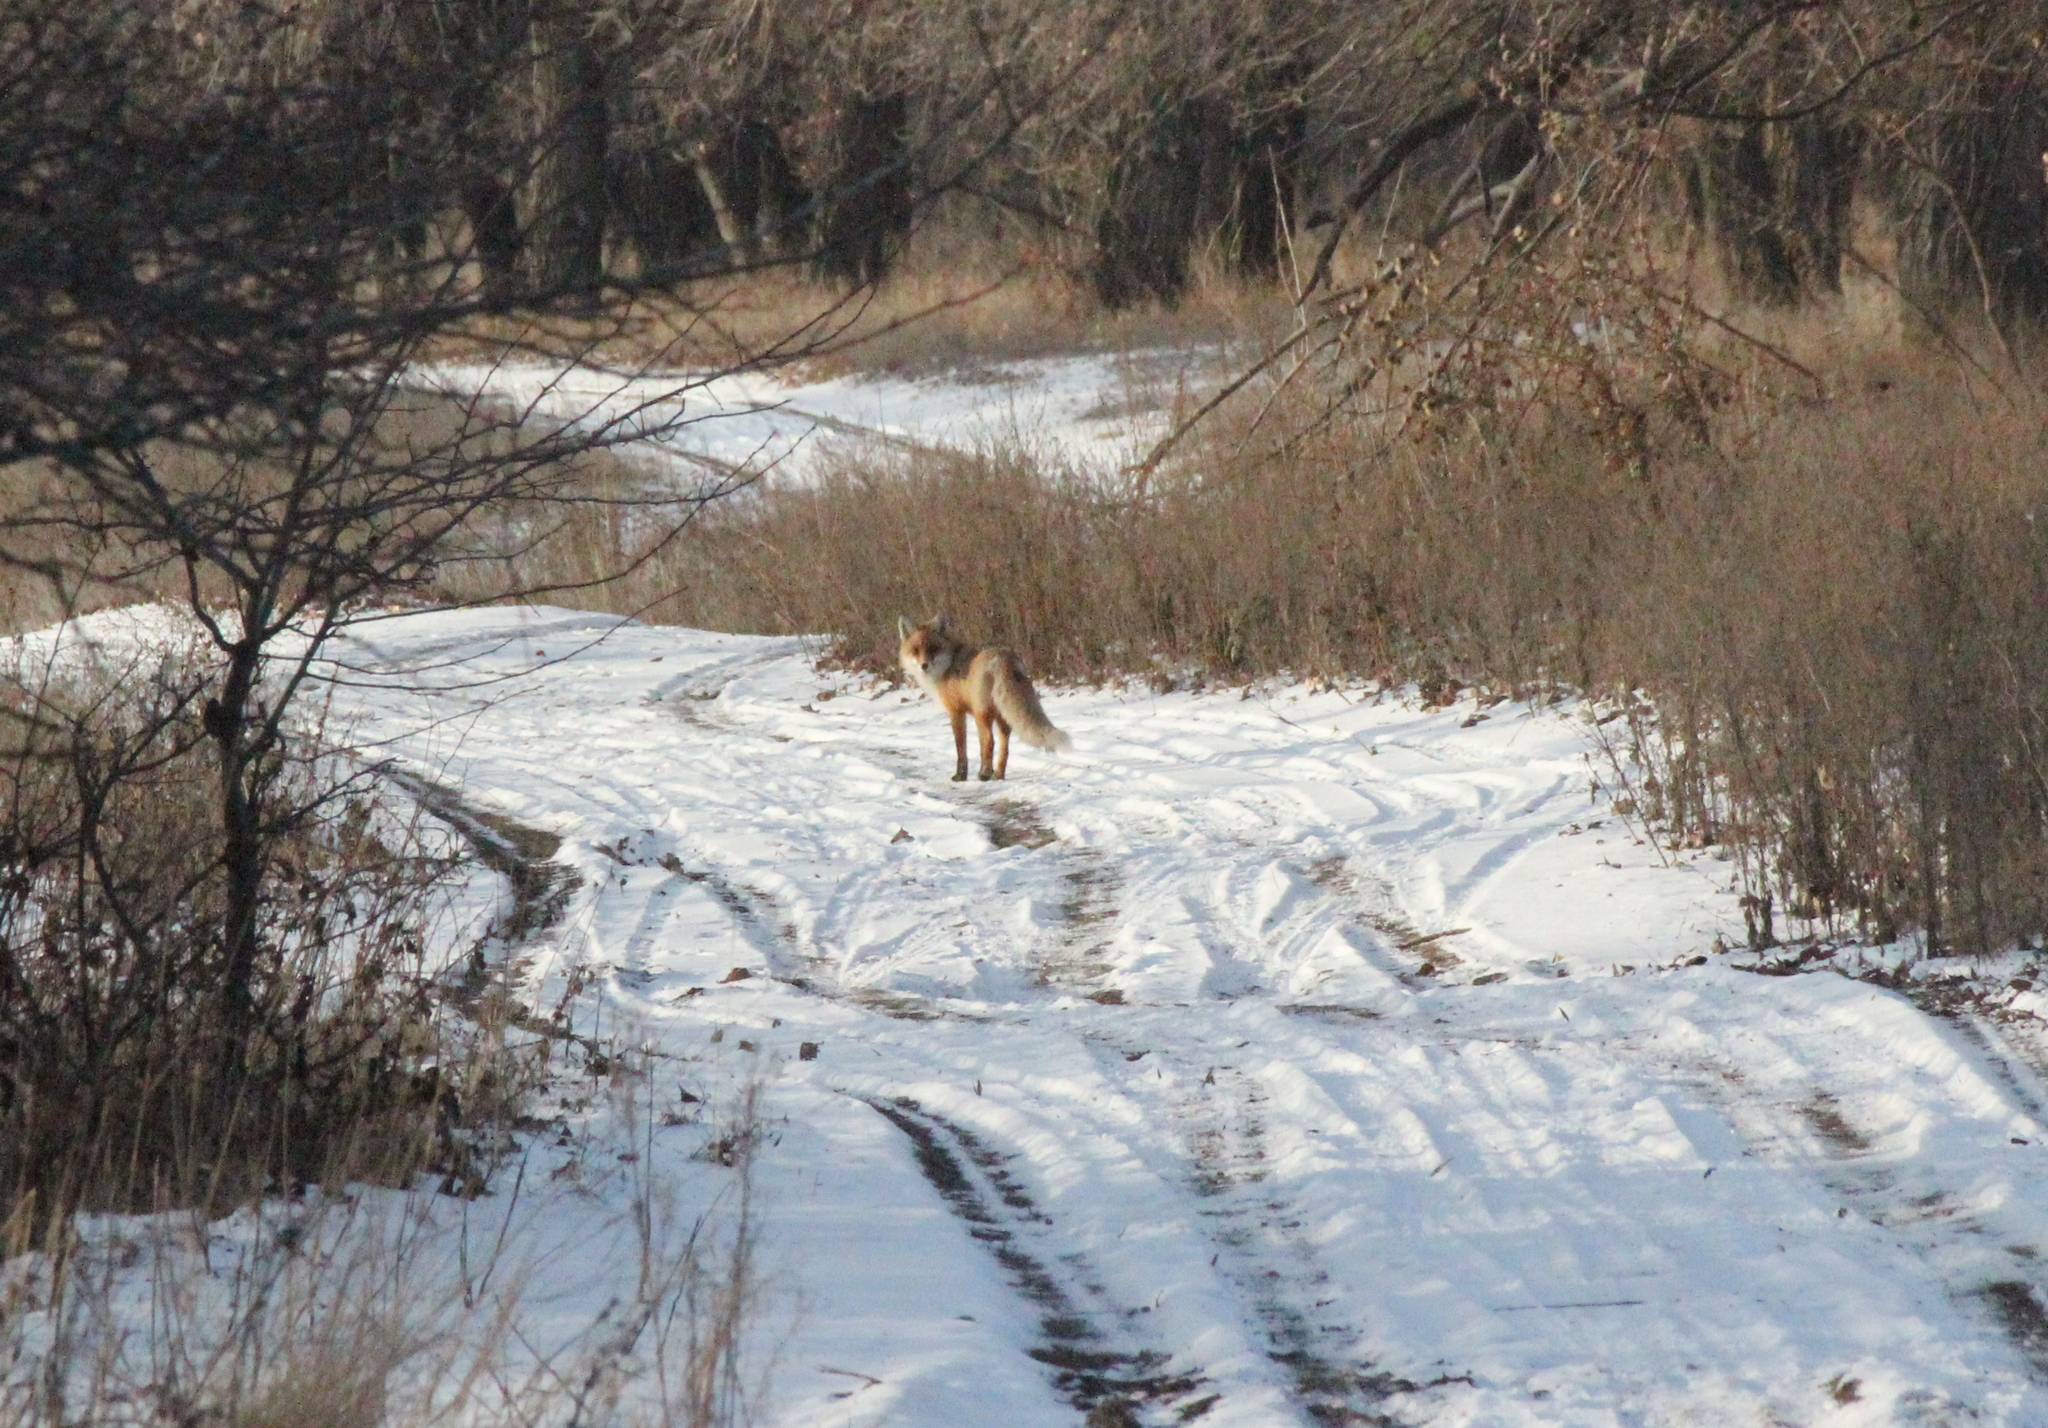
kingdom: Animalia
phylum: Chordata
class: Mammalia
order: Carnivora
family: Canidae
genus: Vulpes
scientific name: Vulpes vulpes
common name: Red fox
